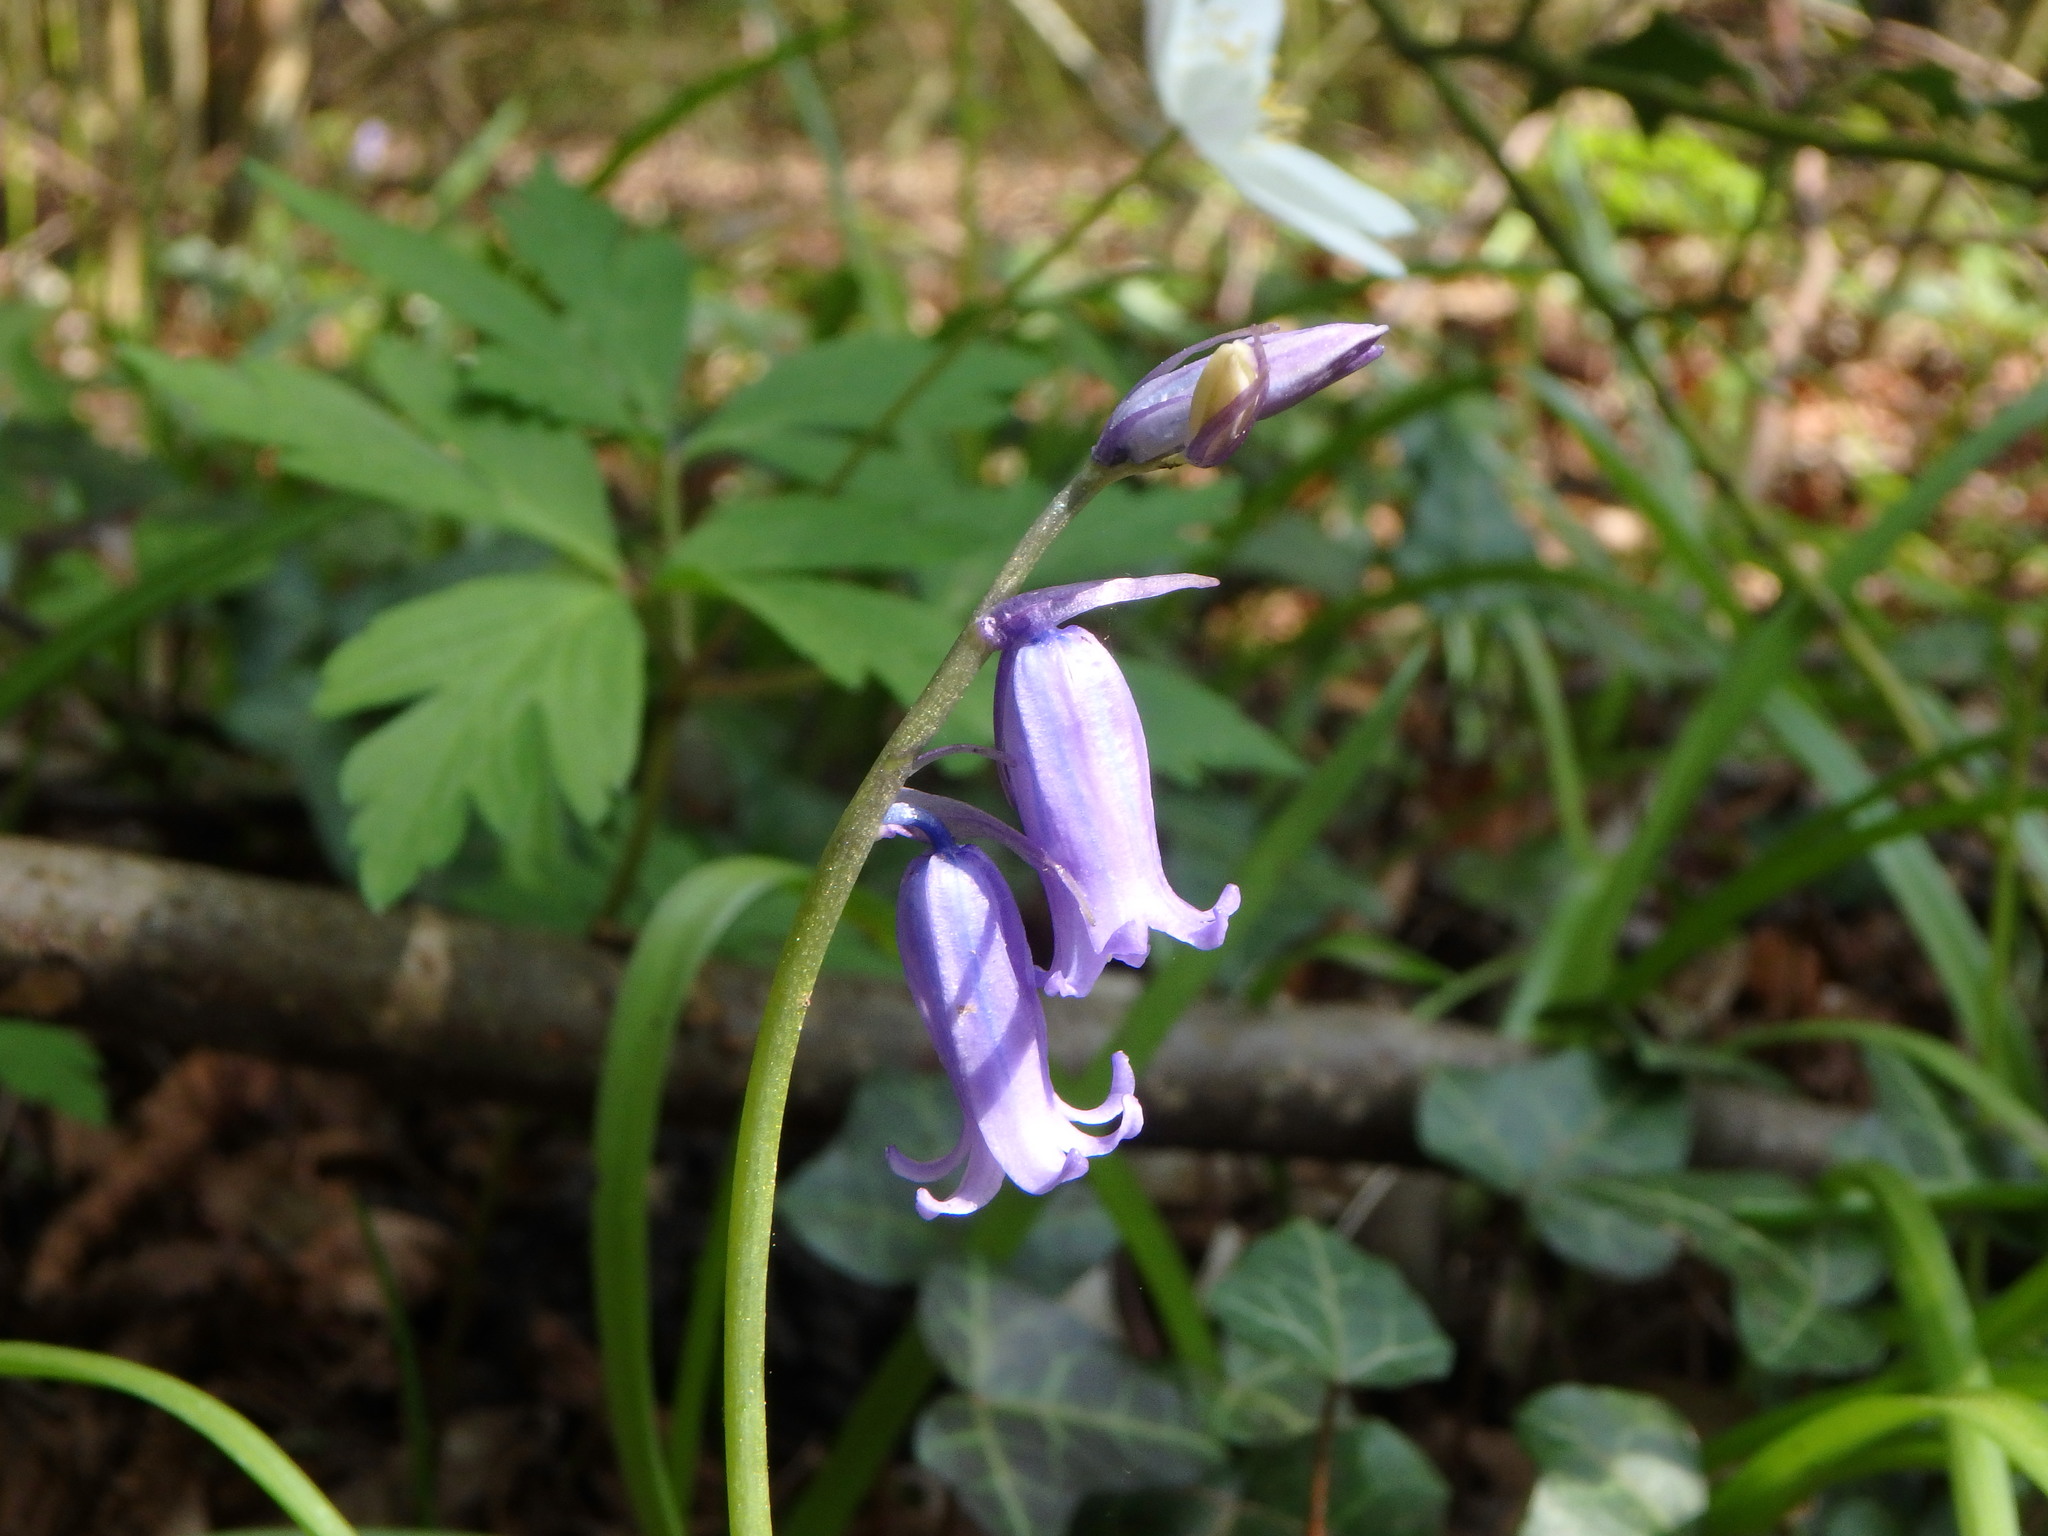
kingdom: Plantae
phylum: Tracheophyta
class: Liliopsida
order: Asparagales
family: Asparagaceae
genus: Hyacinthoides
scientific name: Hyacinthoides non-scripta
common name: Bluebell
